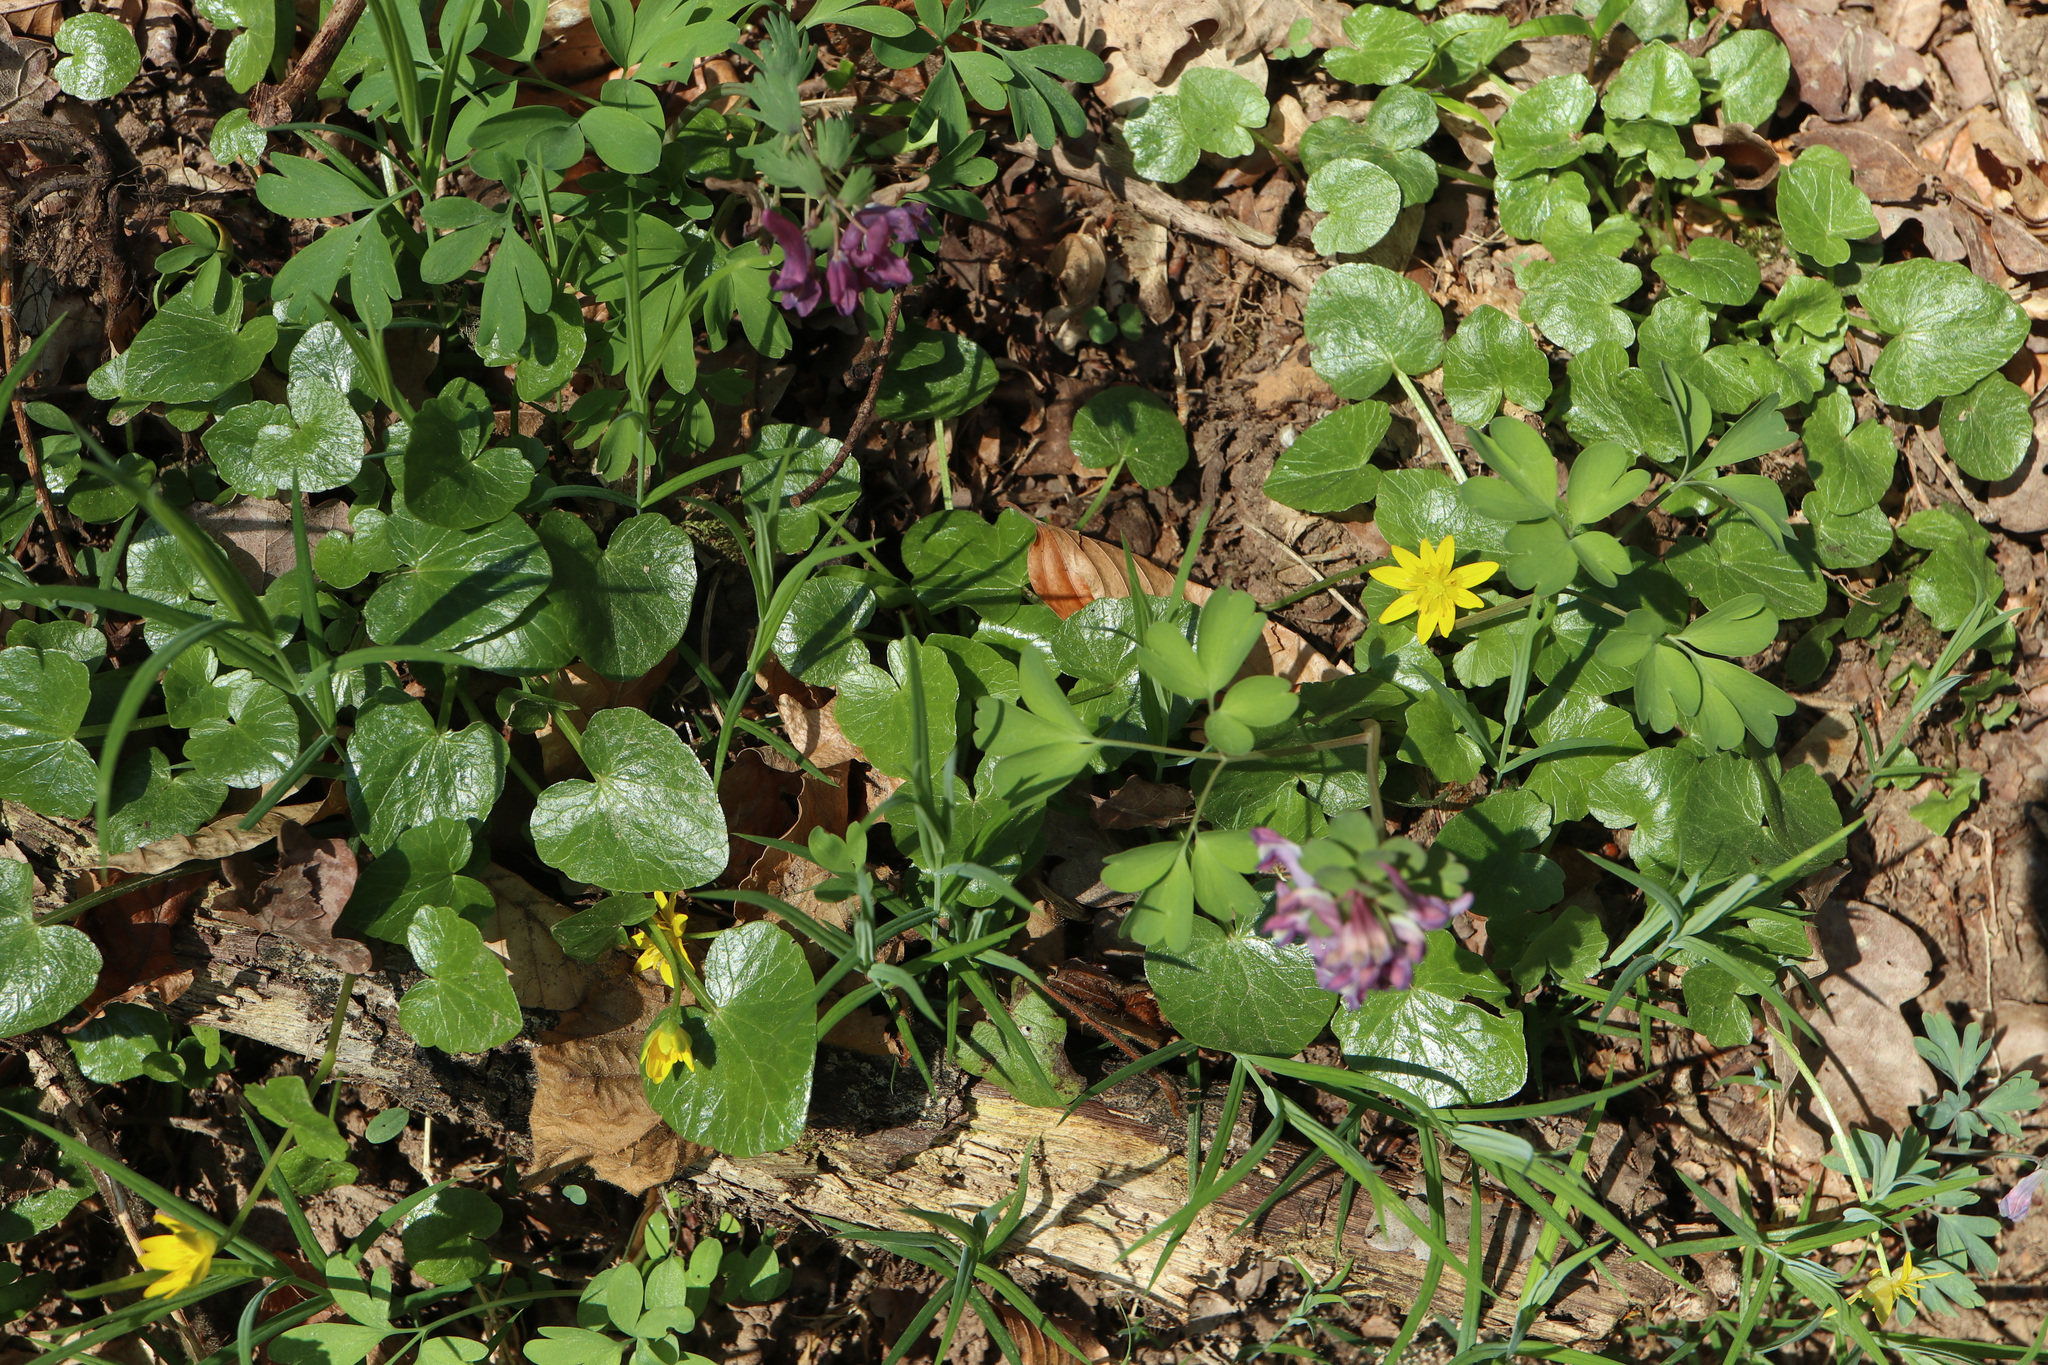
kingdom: Plantae
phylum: Tracheophyta
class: Magnoliopsida
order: Ranunculales
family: Ranunculaceae
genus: Ficaria
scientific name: Ficaria verna
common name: Lesser celandine
